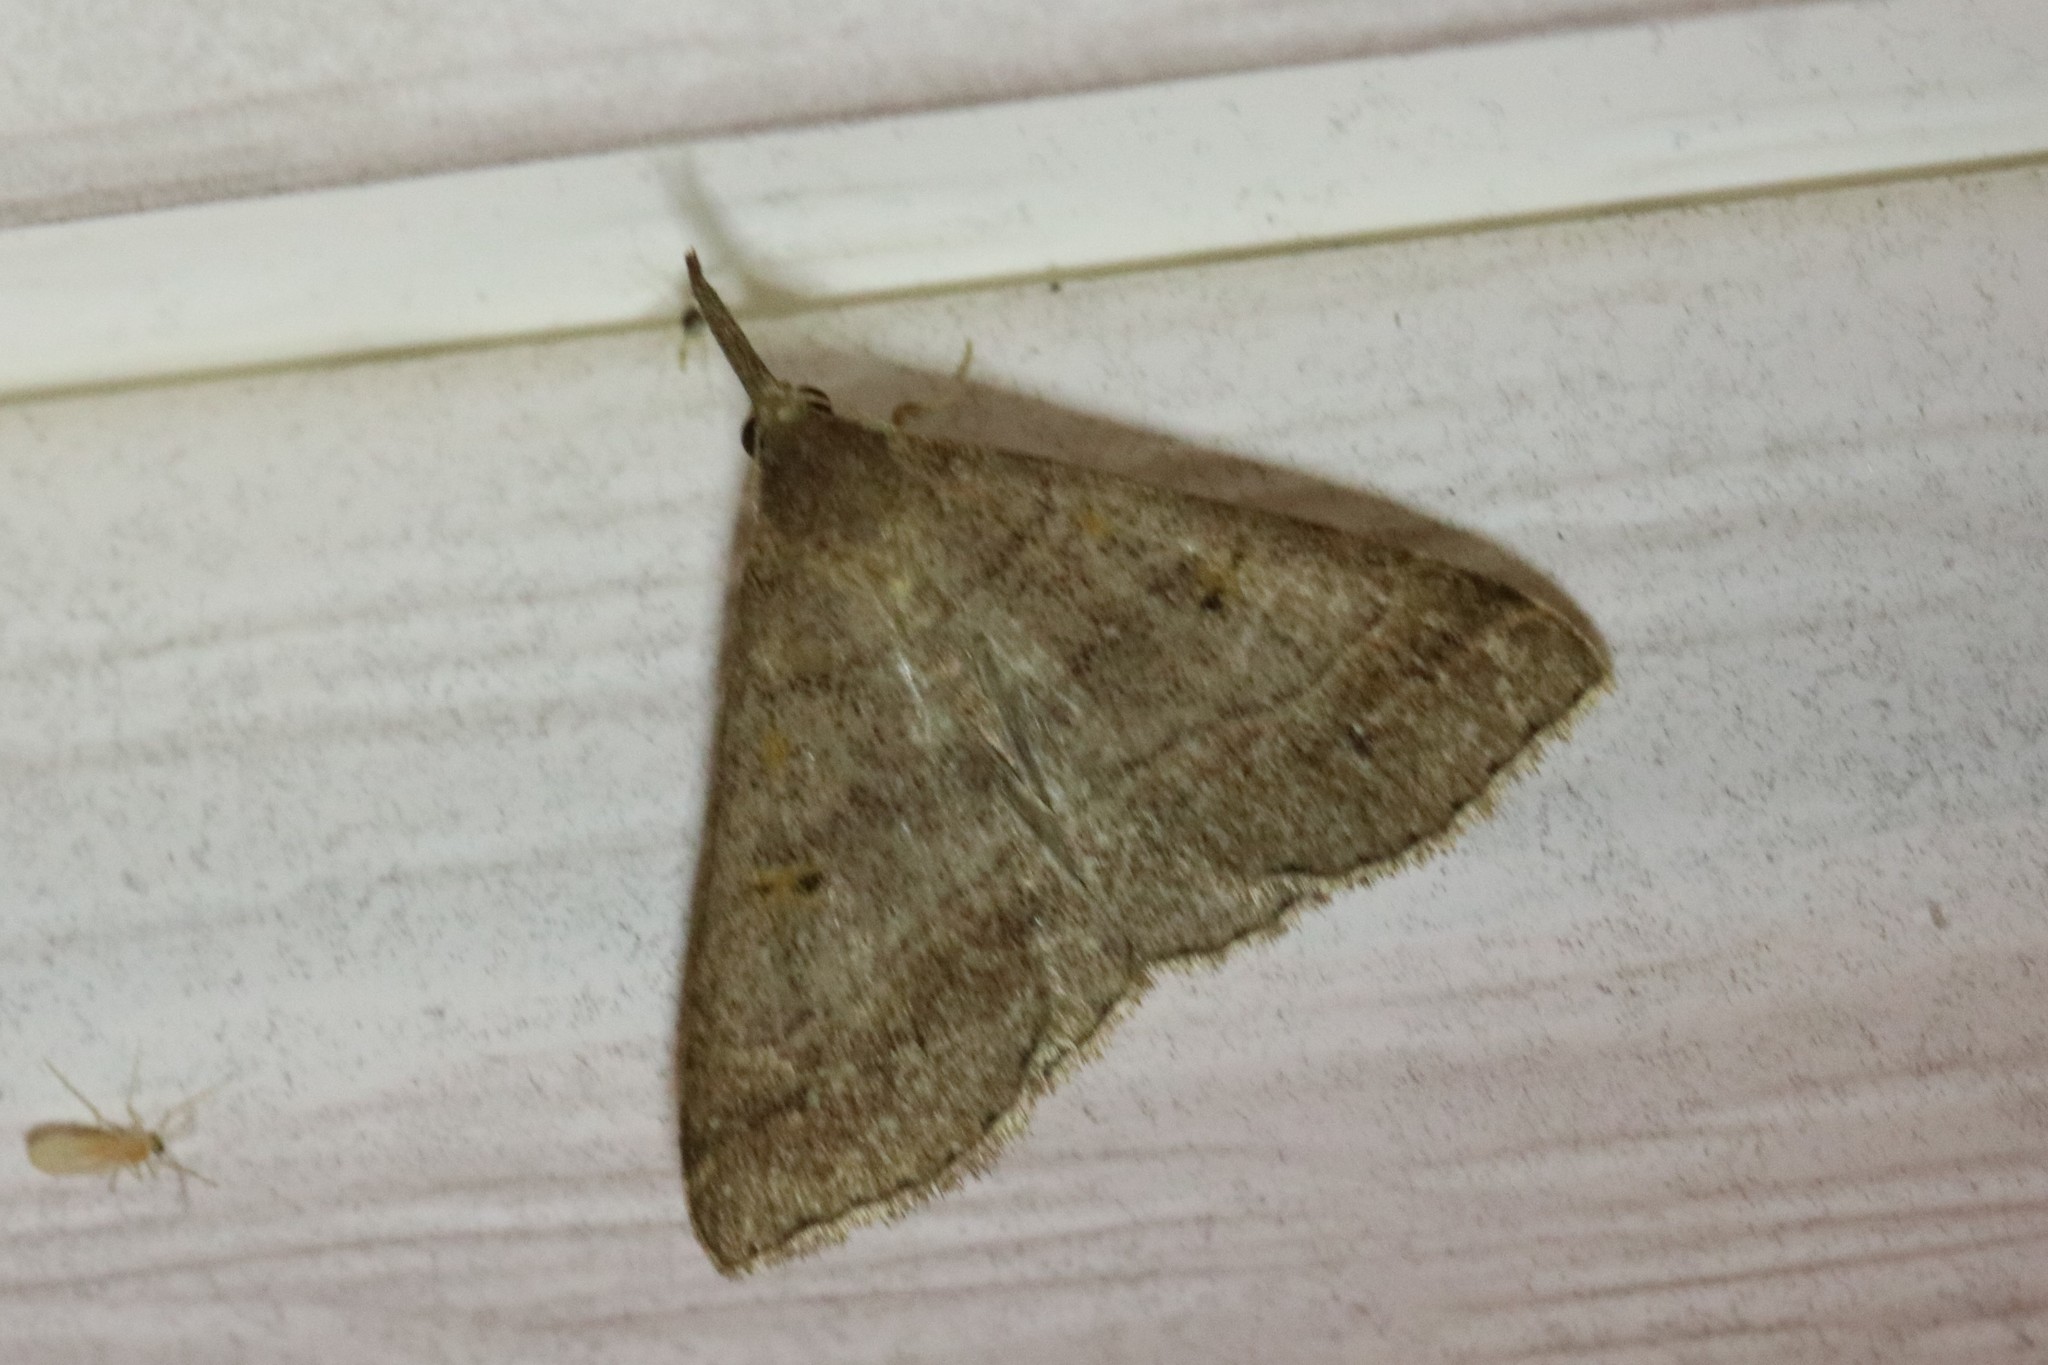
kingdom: Animalia
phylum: Arthropoda
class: Insecta
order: Lepidoptera
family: Erebidae
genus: Renia
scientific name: Renia flavipunctalis
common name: Yellow-spotted renia moth
